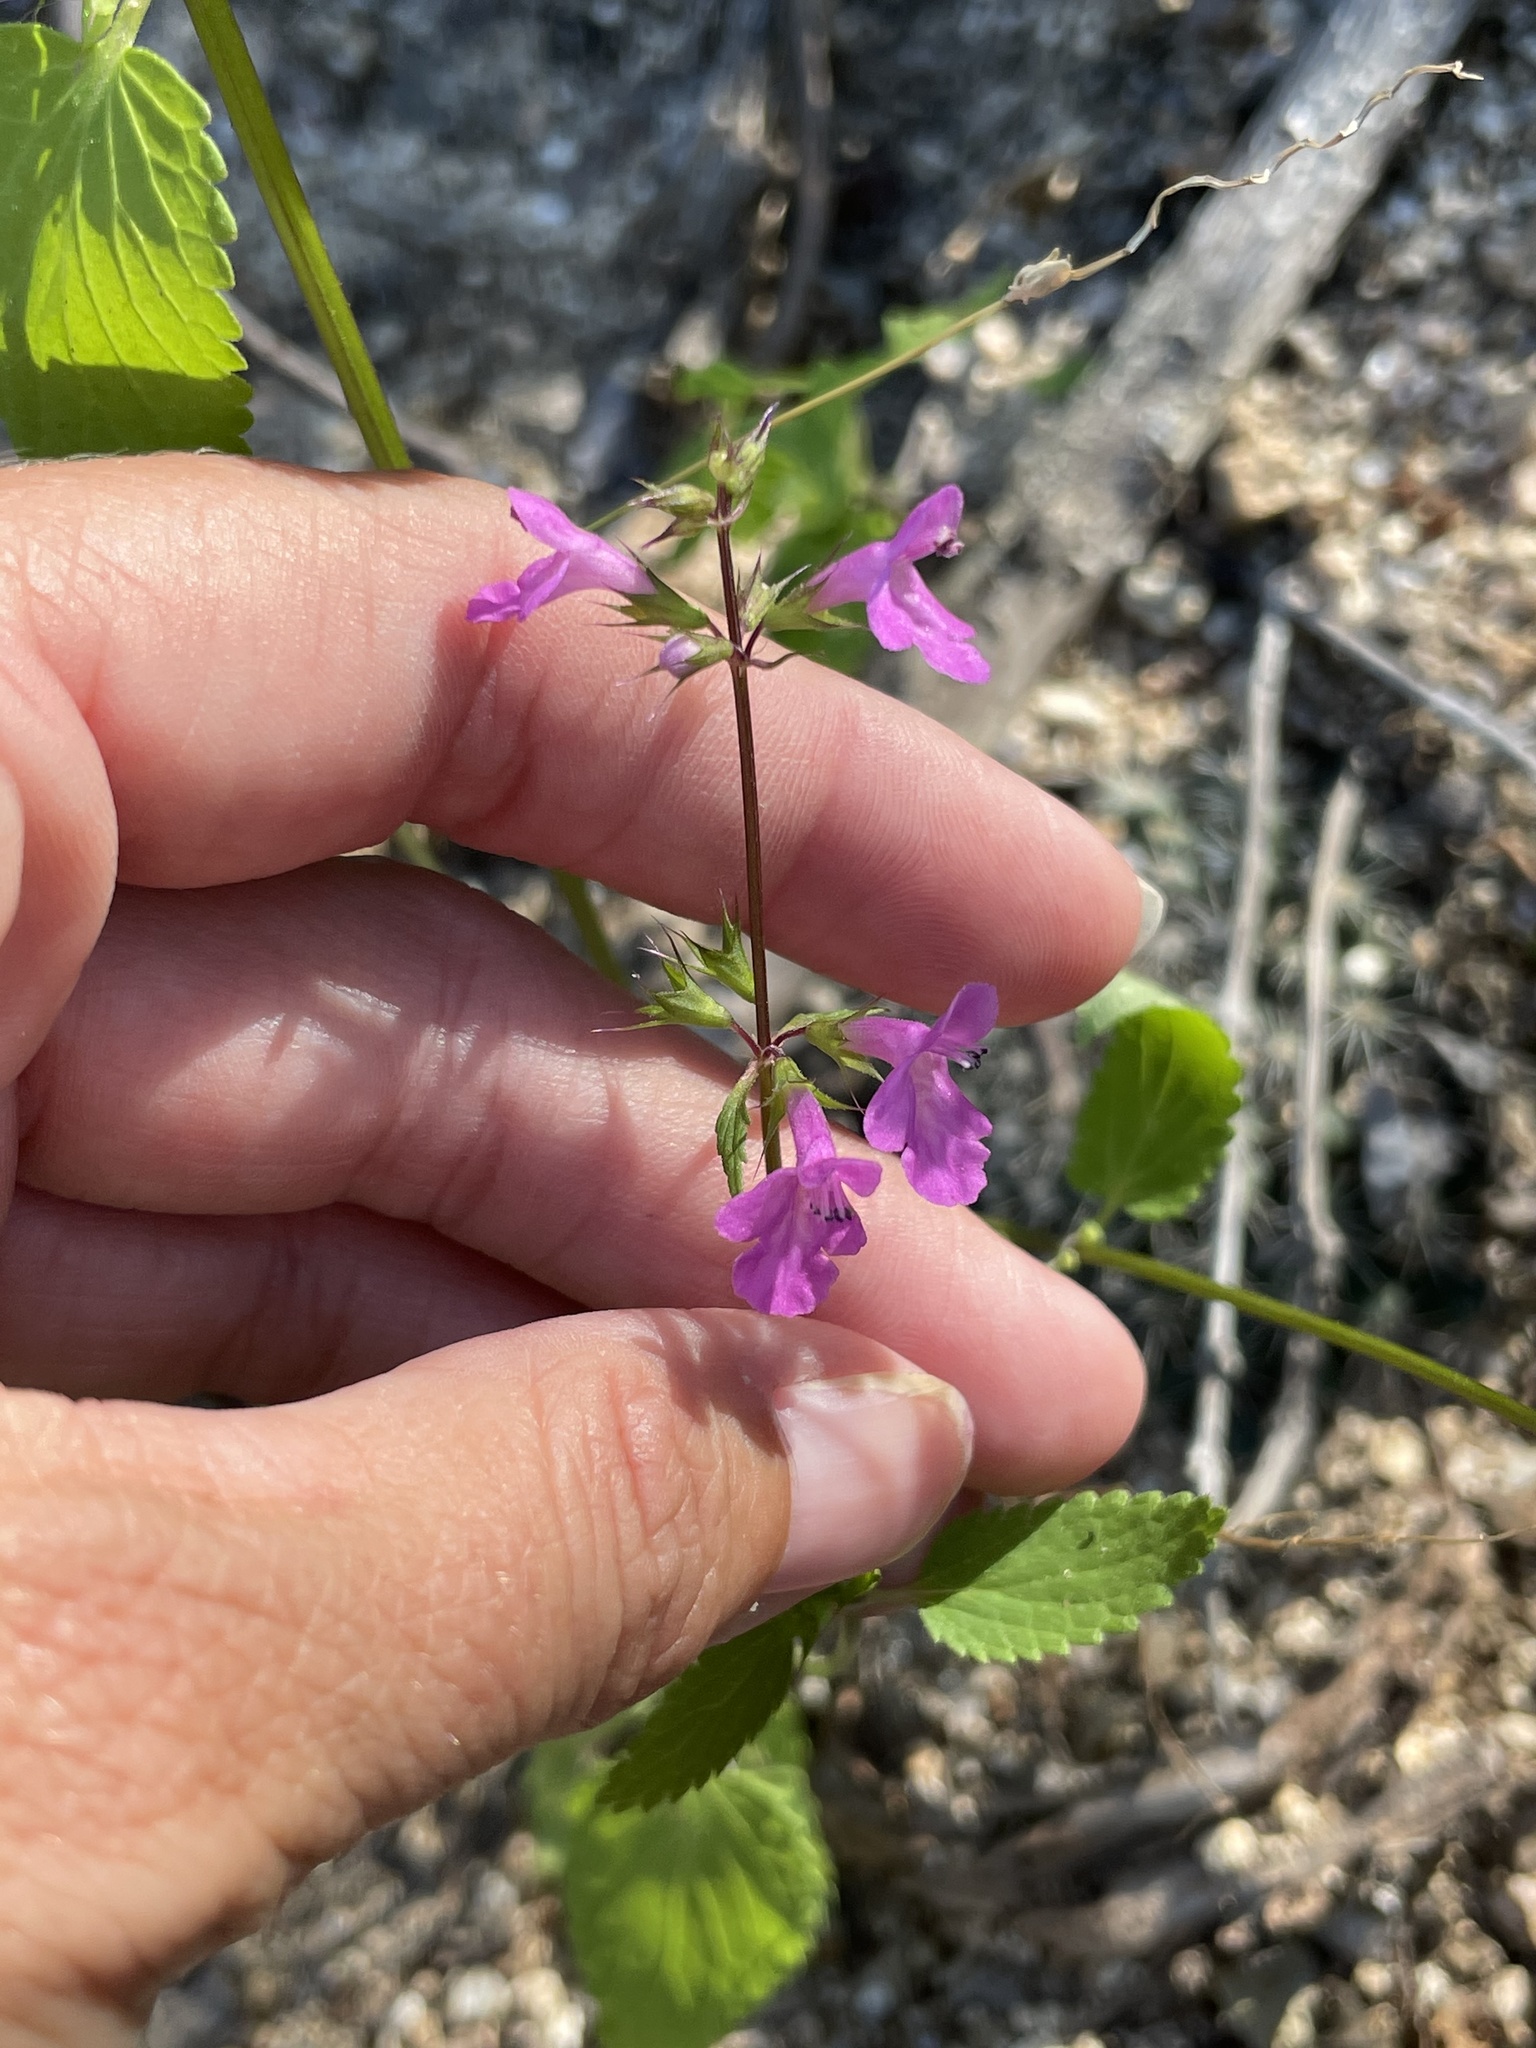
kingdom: Plantae
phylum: Tracheophyta
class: Magnoliopsida
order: Lamiales
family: Lamiaceae
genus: Stachys
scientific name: Stachys tenerrima
